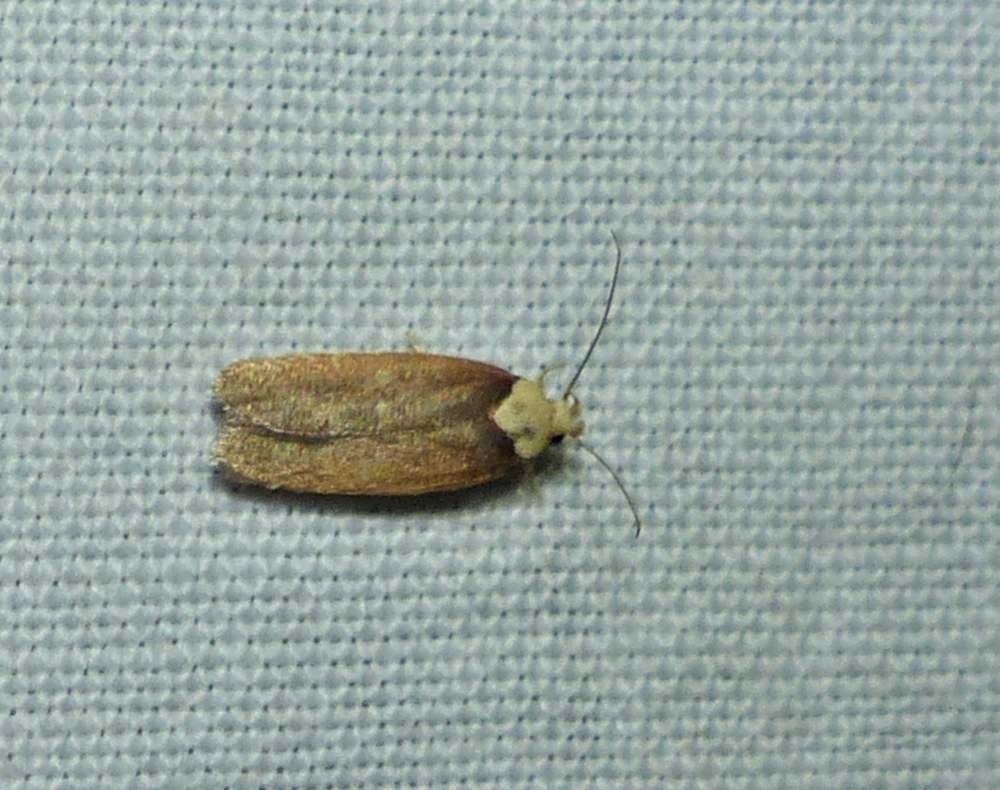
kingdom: Animalia
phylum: Arthropoda
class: Insecta
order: Lepidoptera
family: Depressariidae
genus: Depressaria
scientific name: Depressaria depressana
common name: Lost flat-body
